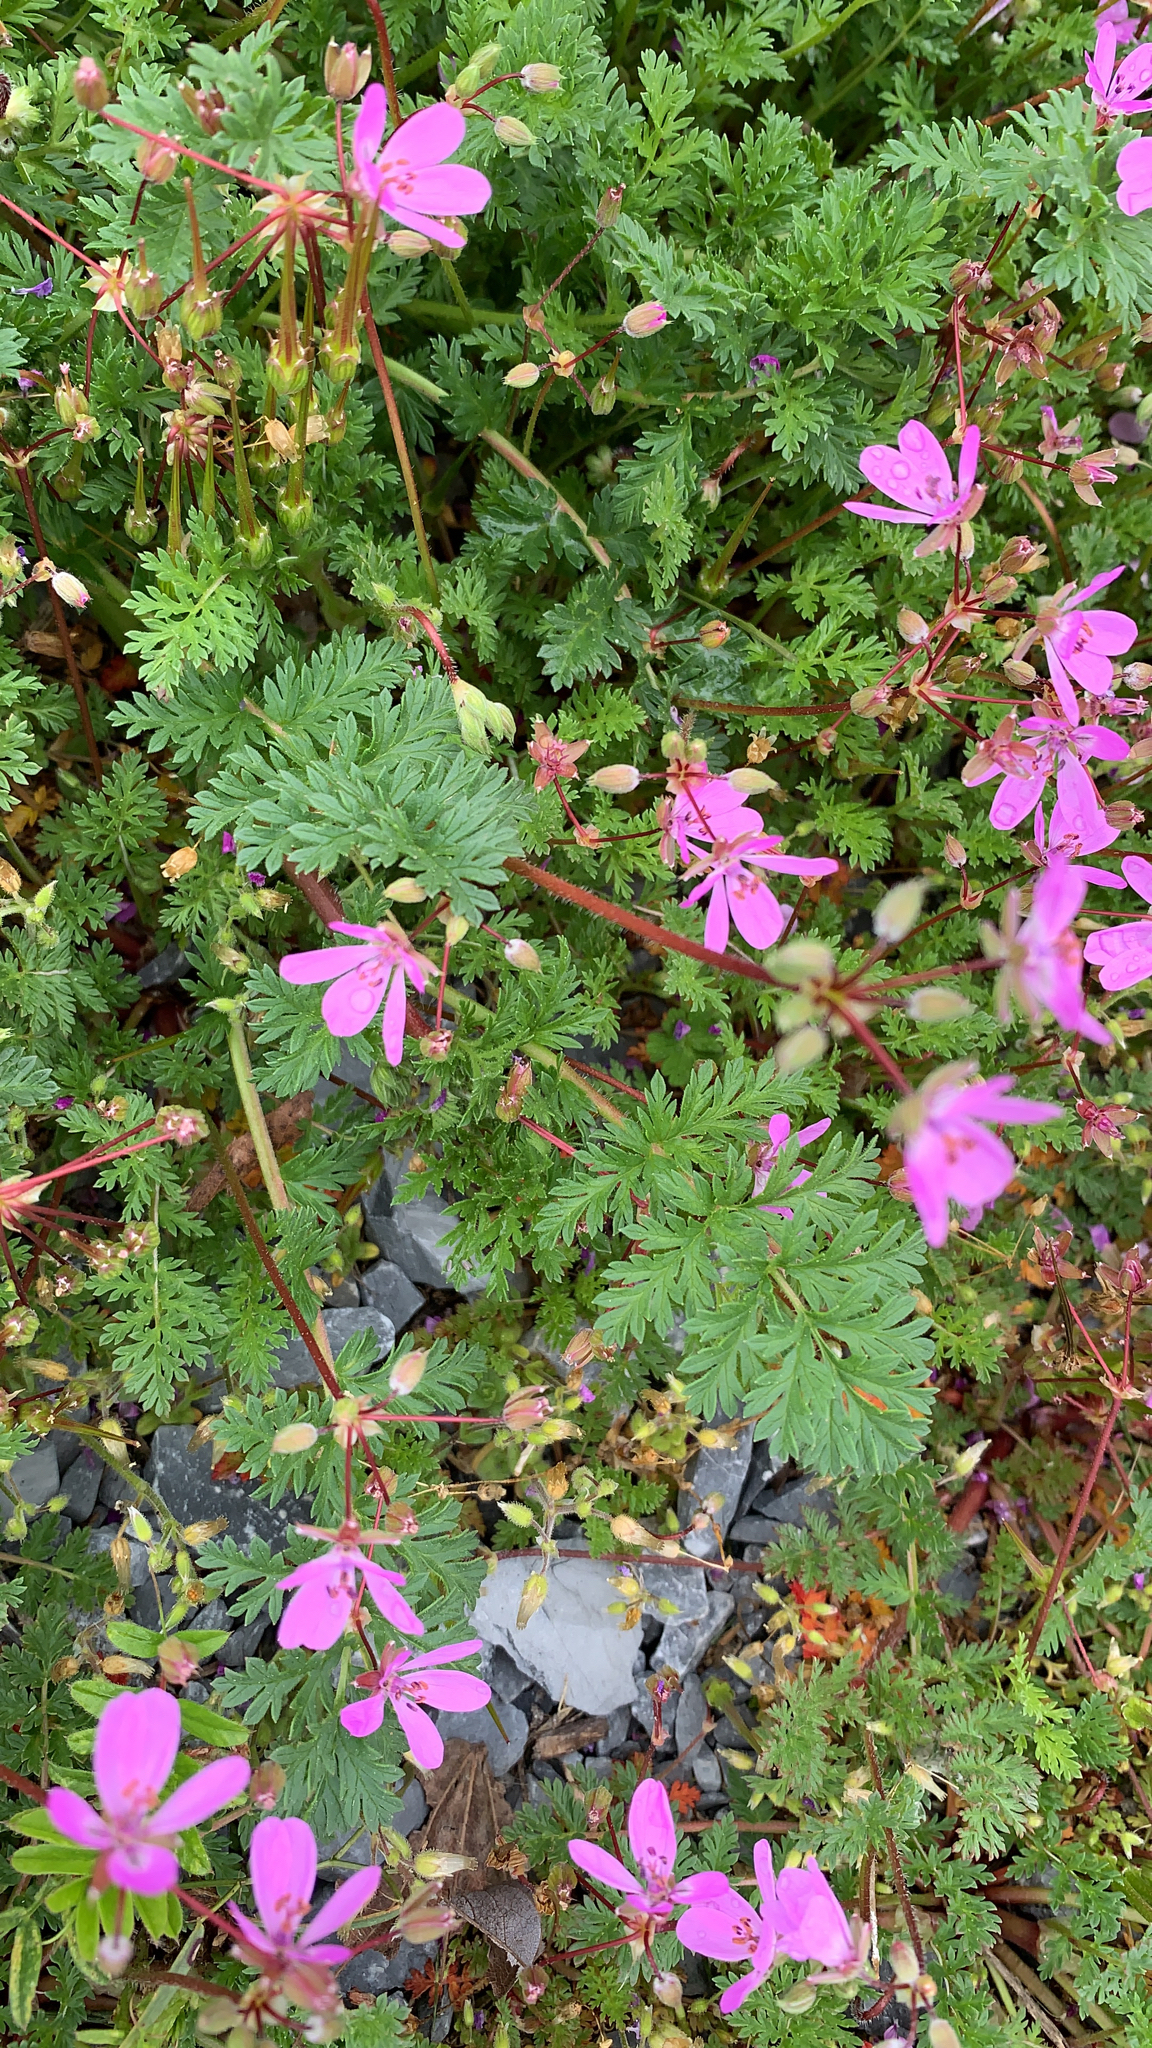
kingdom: Plantae
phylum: Tracheophyta
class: Magnoliopsida
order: Geraniales
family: Geraniaceae
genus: Erodium
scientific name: Erodium cicutarium
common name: Common stork's-bill
